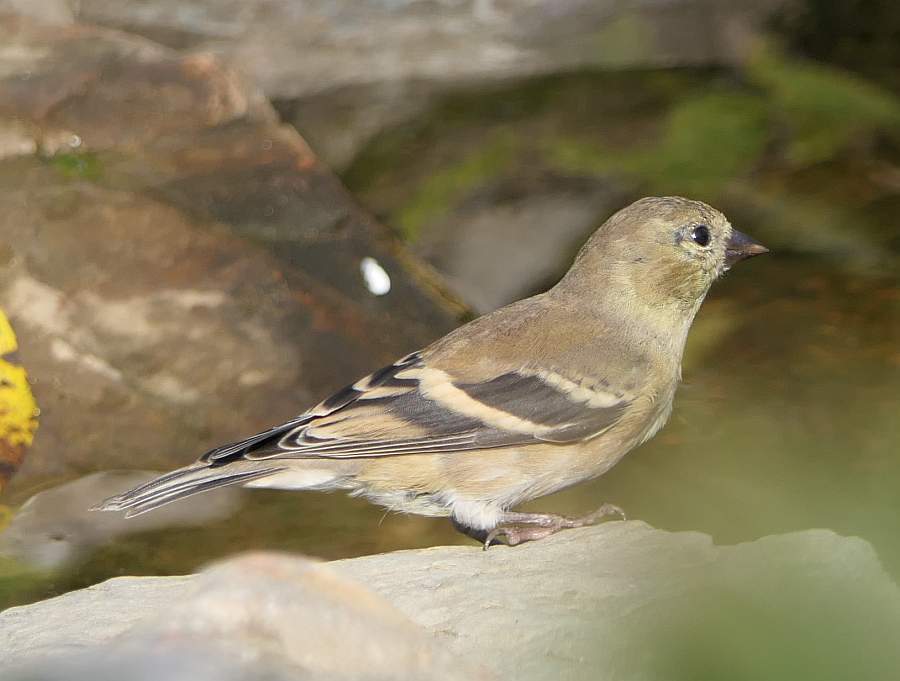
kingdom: Animalia
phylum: Chordata
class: Aves
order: Passeriformes
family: Fringillidae
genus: Spinus
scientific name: Spinus tristis
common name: American goldfinch
